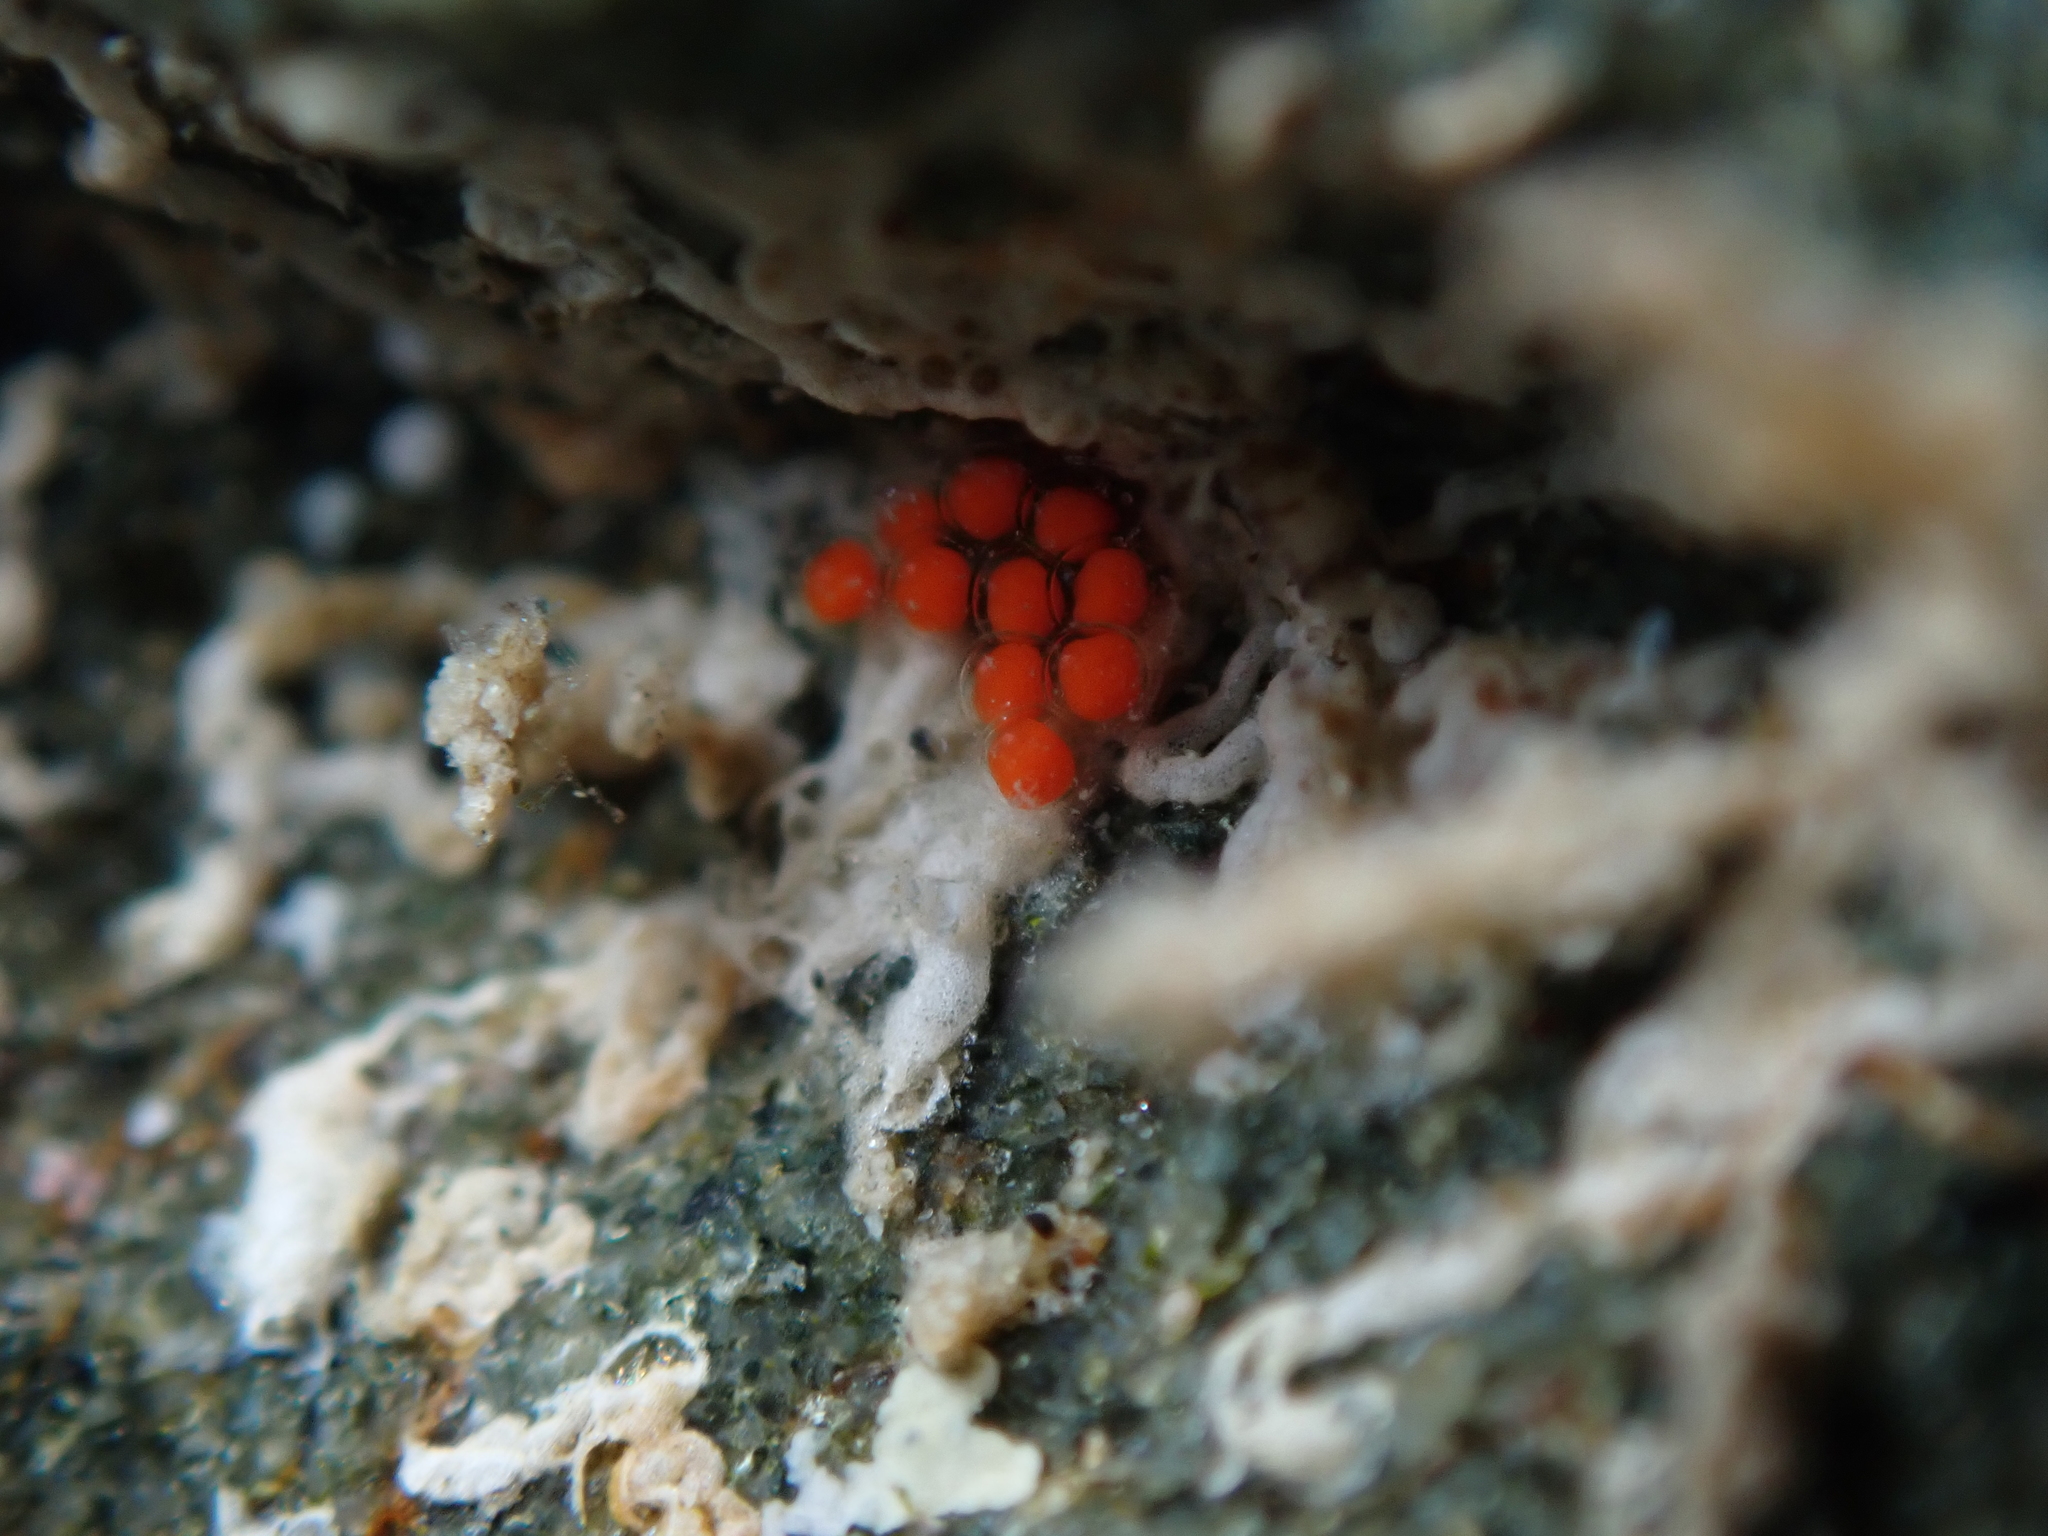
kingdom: Animalia
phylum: Mollusca
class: Gastropoda
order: Nudibranchia
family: Okadaiidae
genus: Vayssierea
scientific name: Vayssierea cinnabarea
